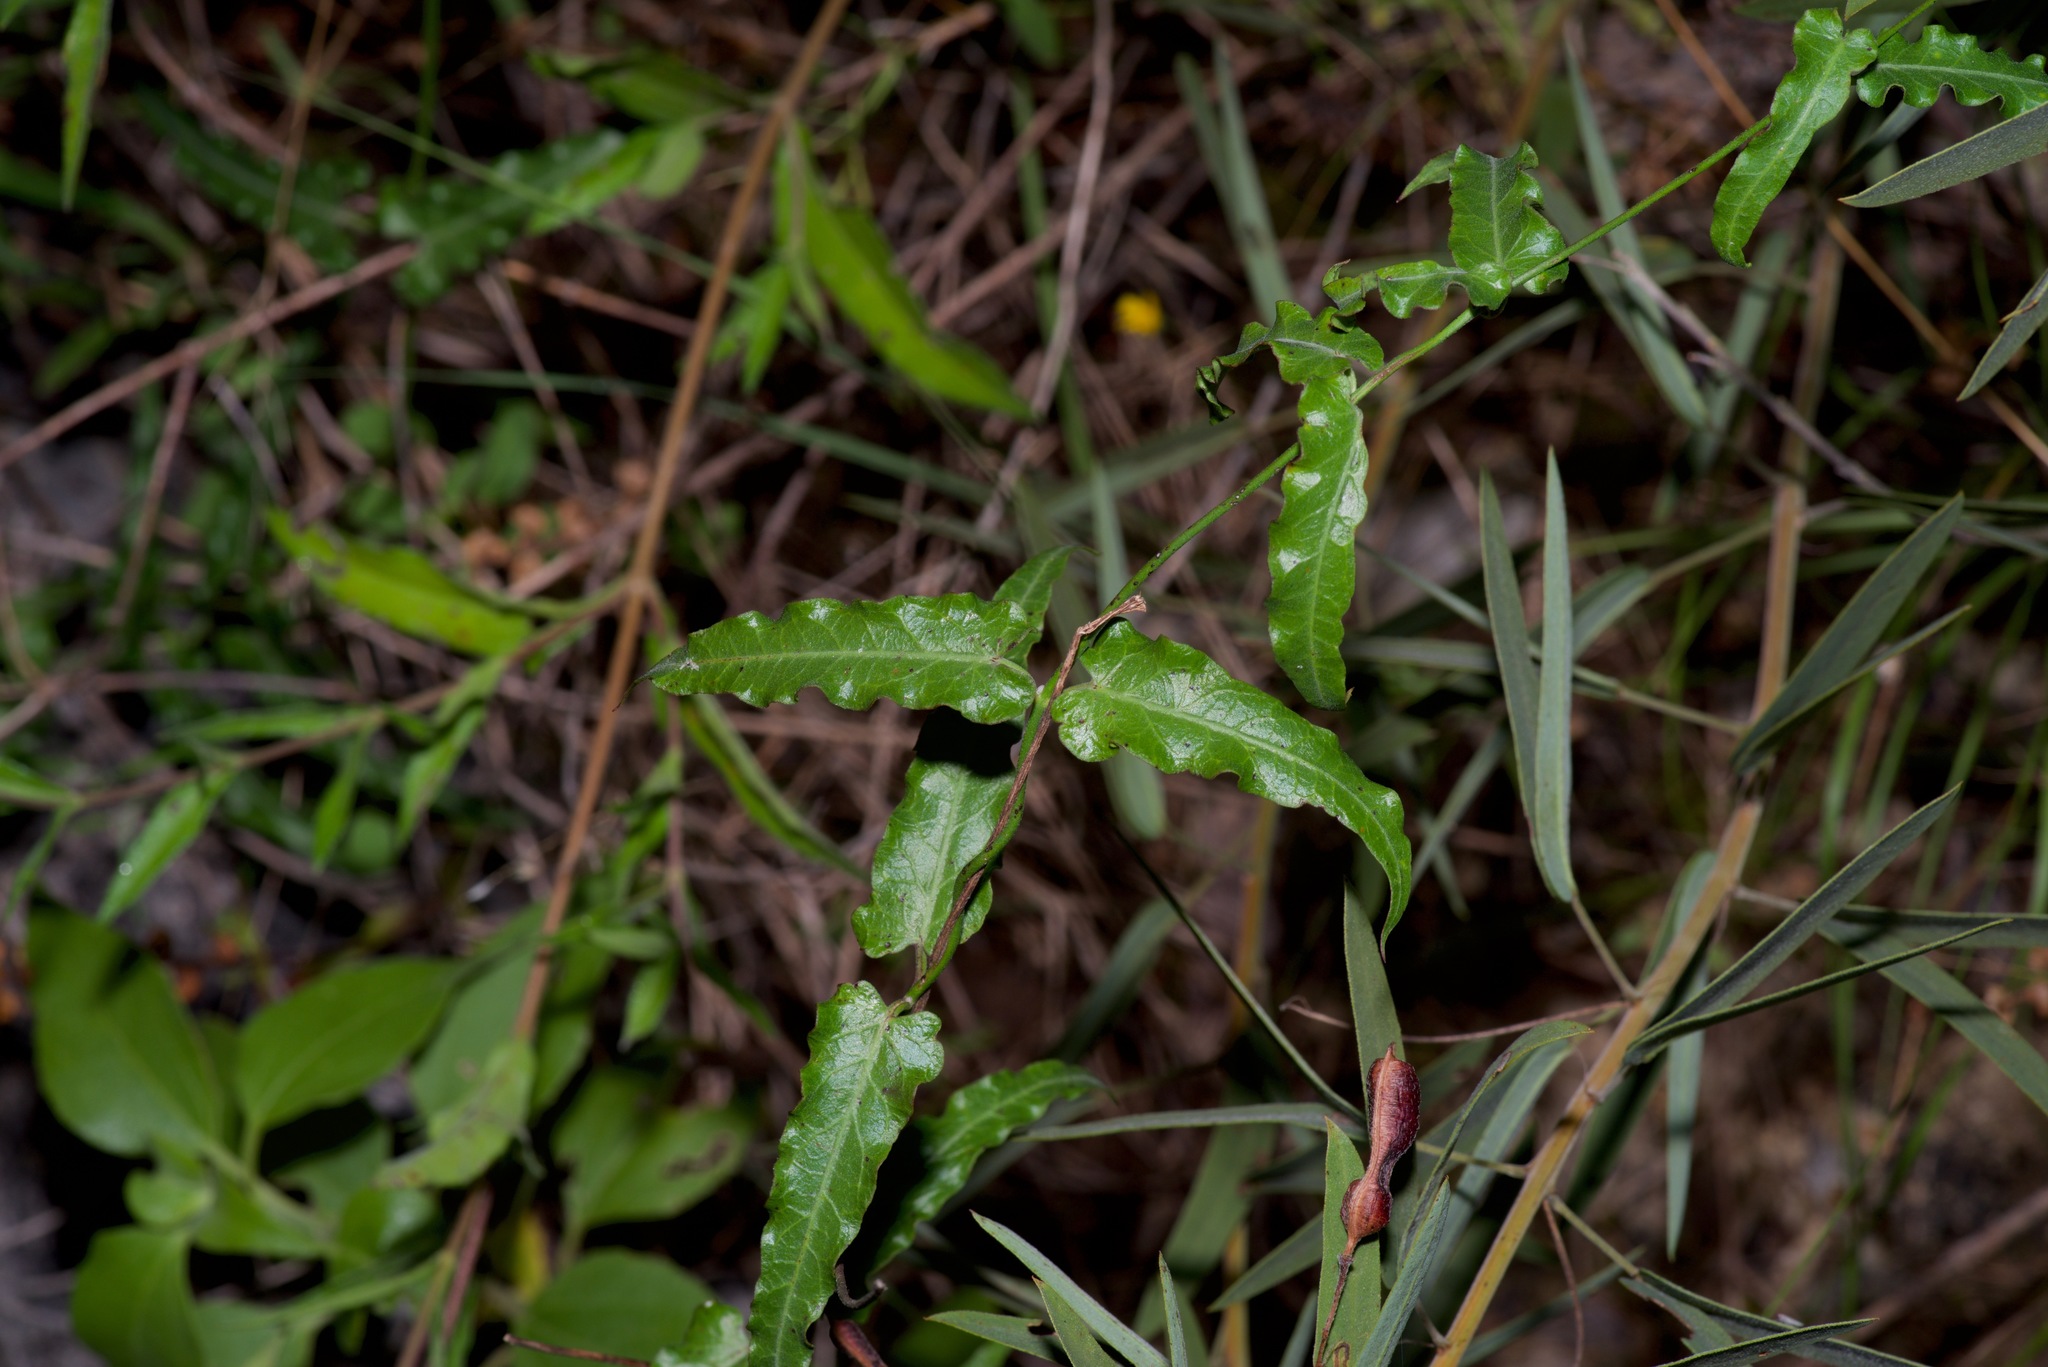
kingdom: Plantae
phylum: Tracheophyta
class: Magnoliopsida
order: Gentianales
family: Apocynaceae
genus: Funastrum
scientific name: Funastrum crispum
